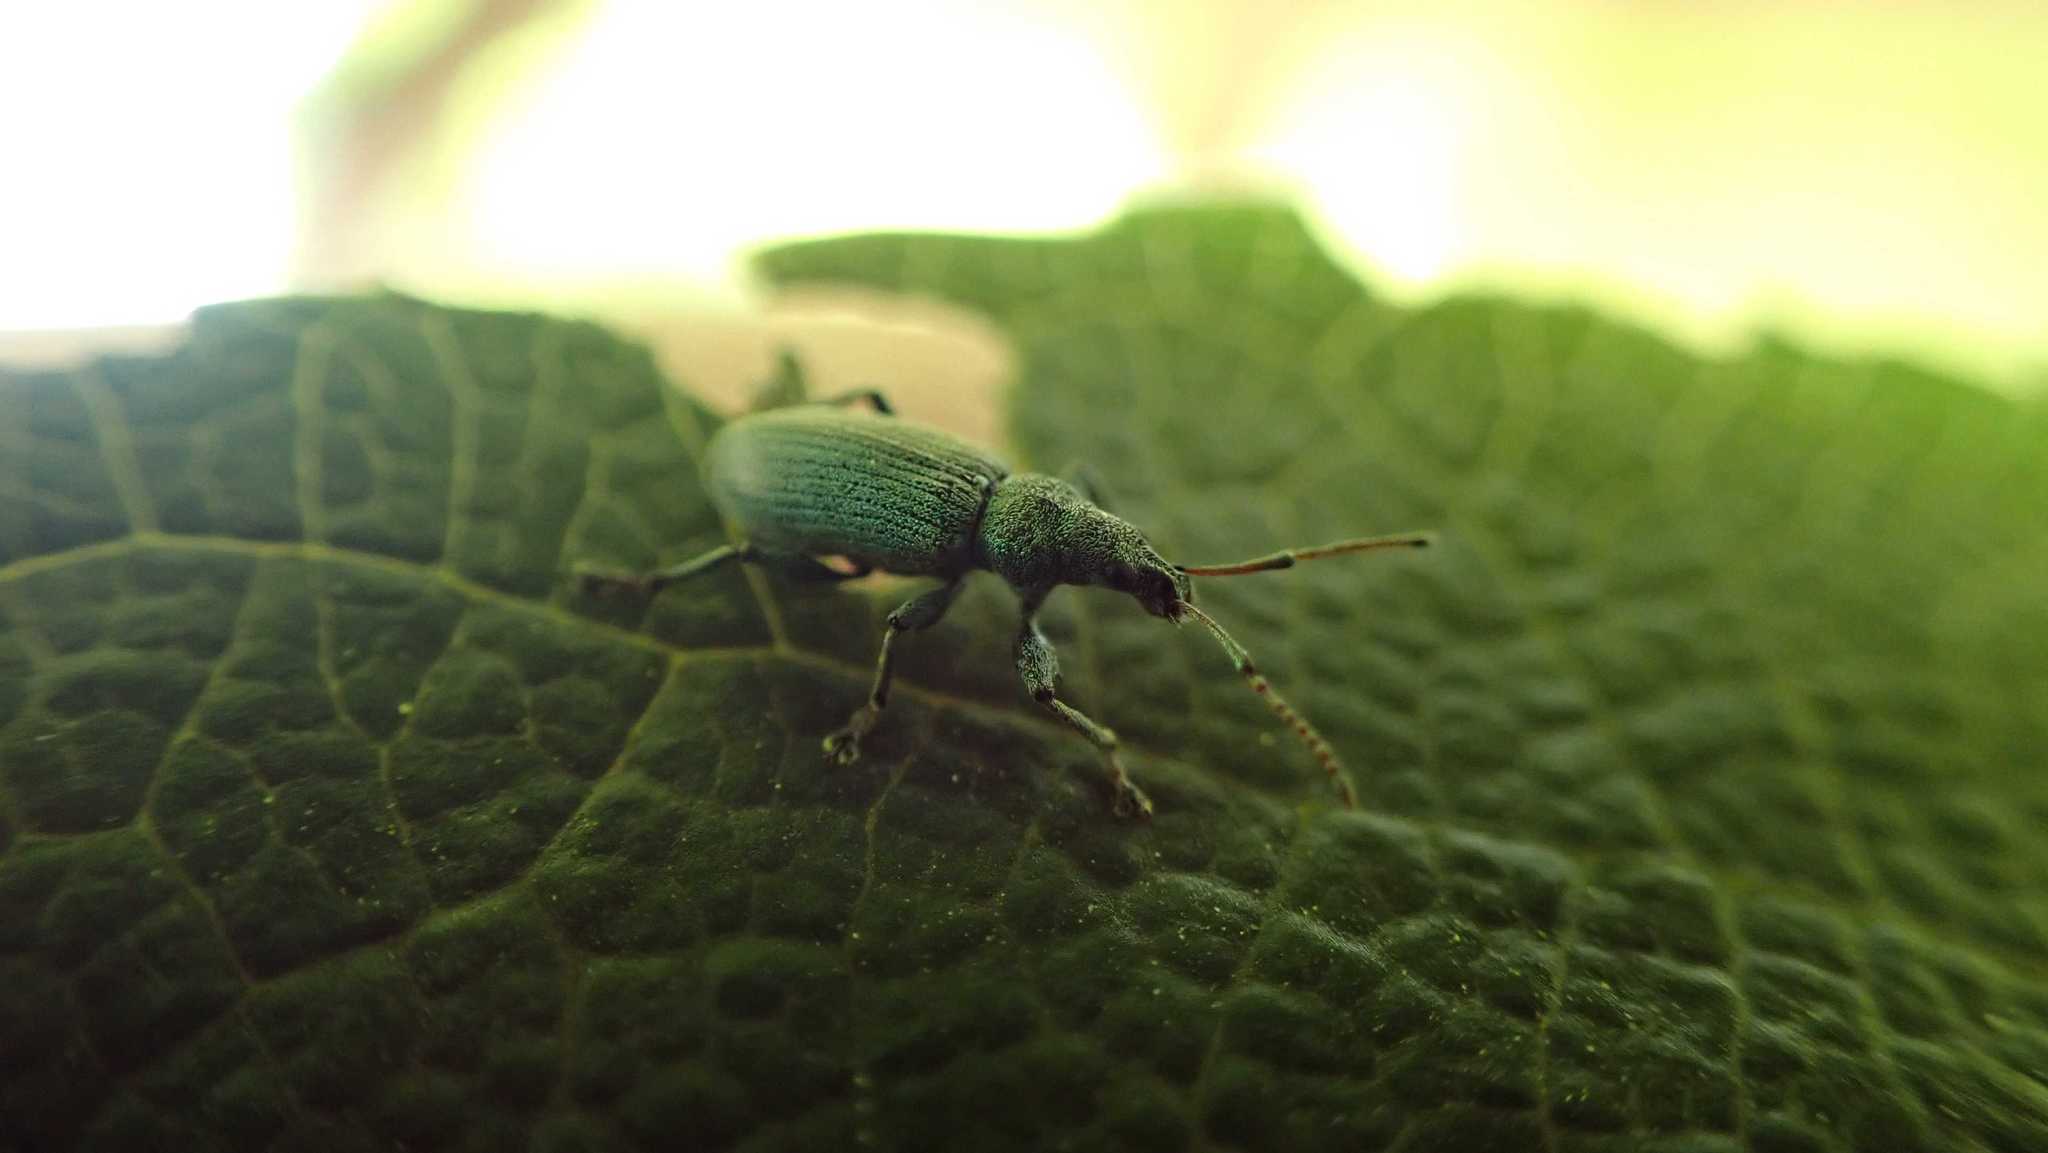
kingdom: Animalia
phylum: Arthropoda
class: Insecta
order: Coleoptera
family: Curculionidae
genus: Phyllobius
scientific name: Phyllobius maculicornis
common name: Green leaf weevil
